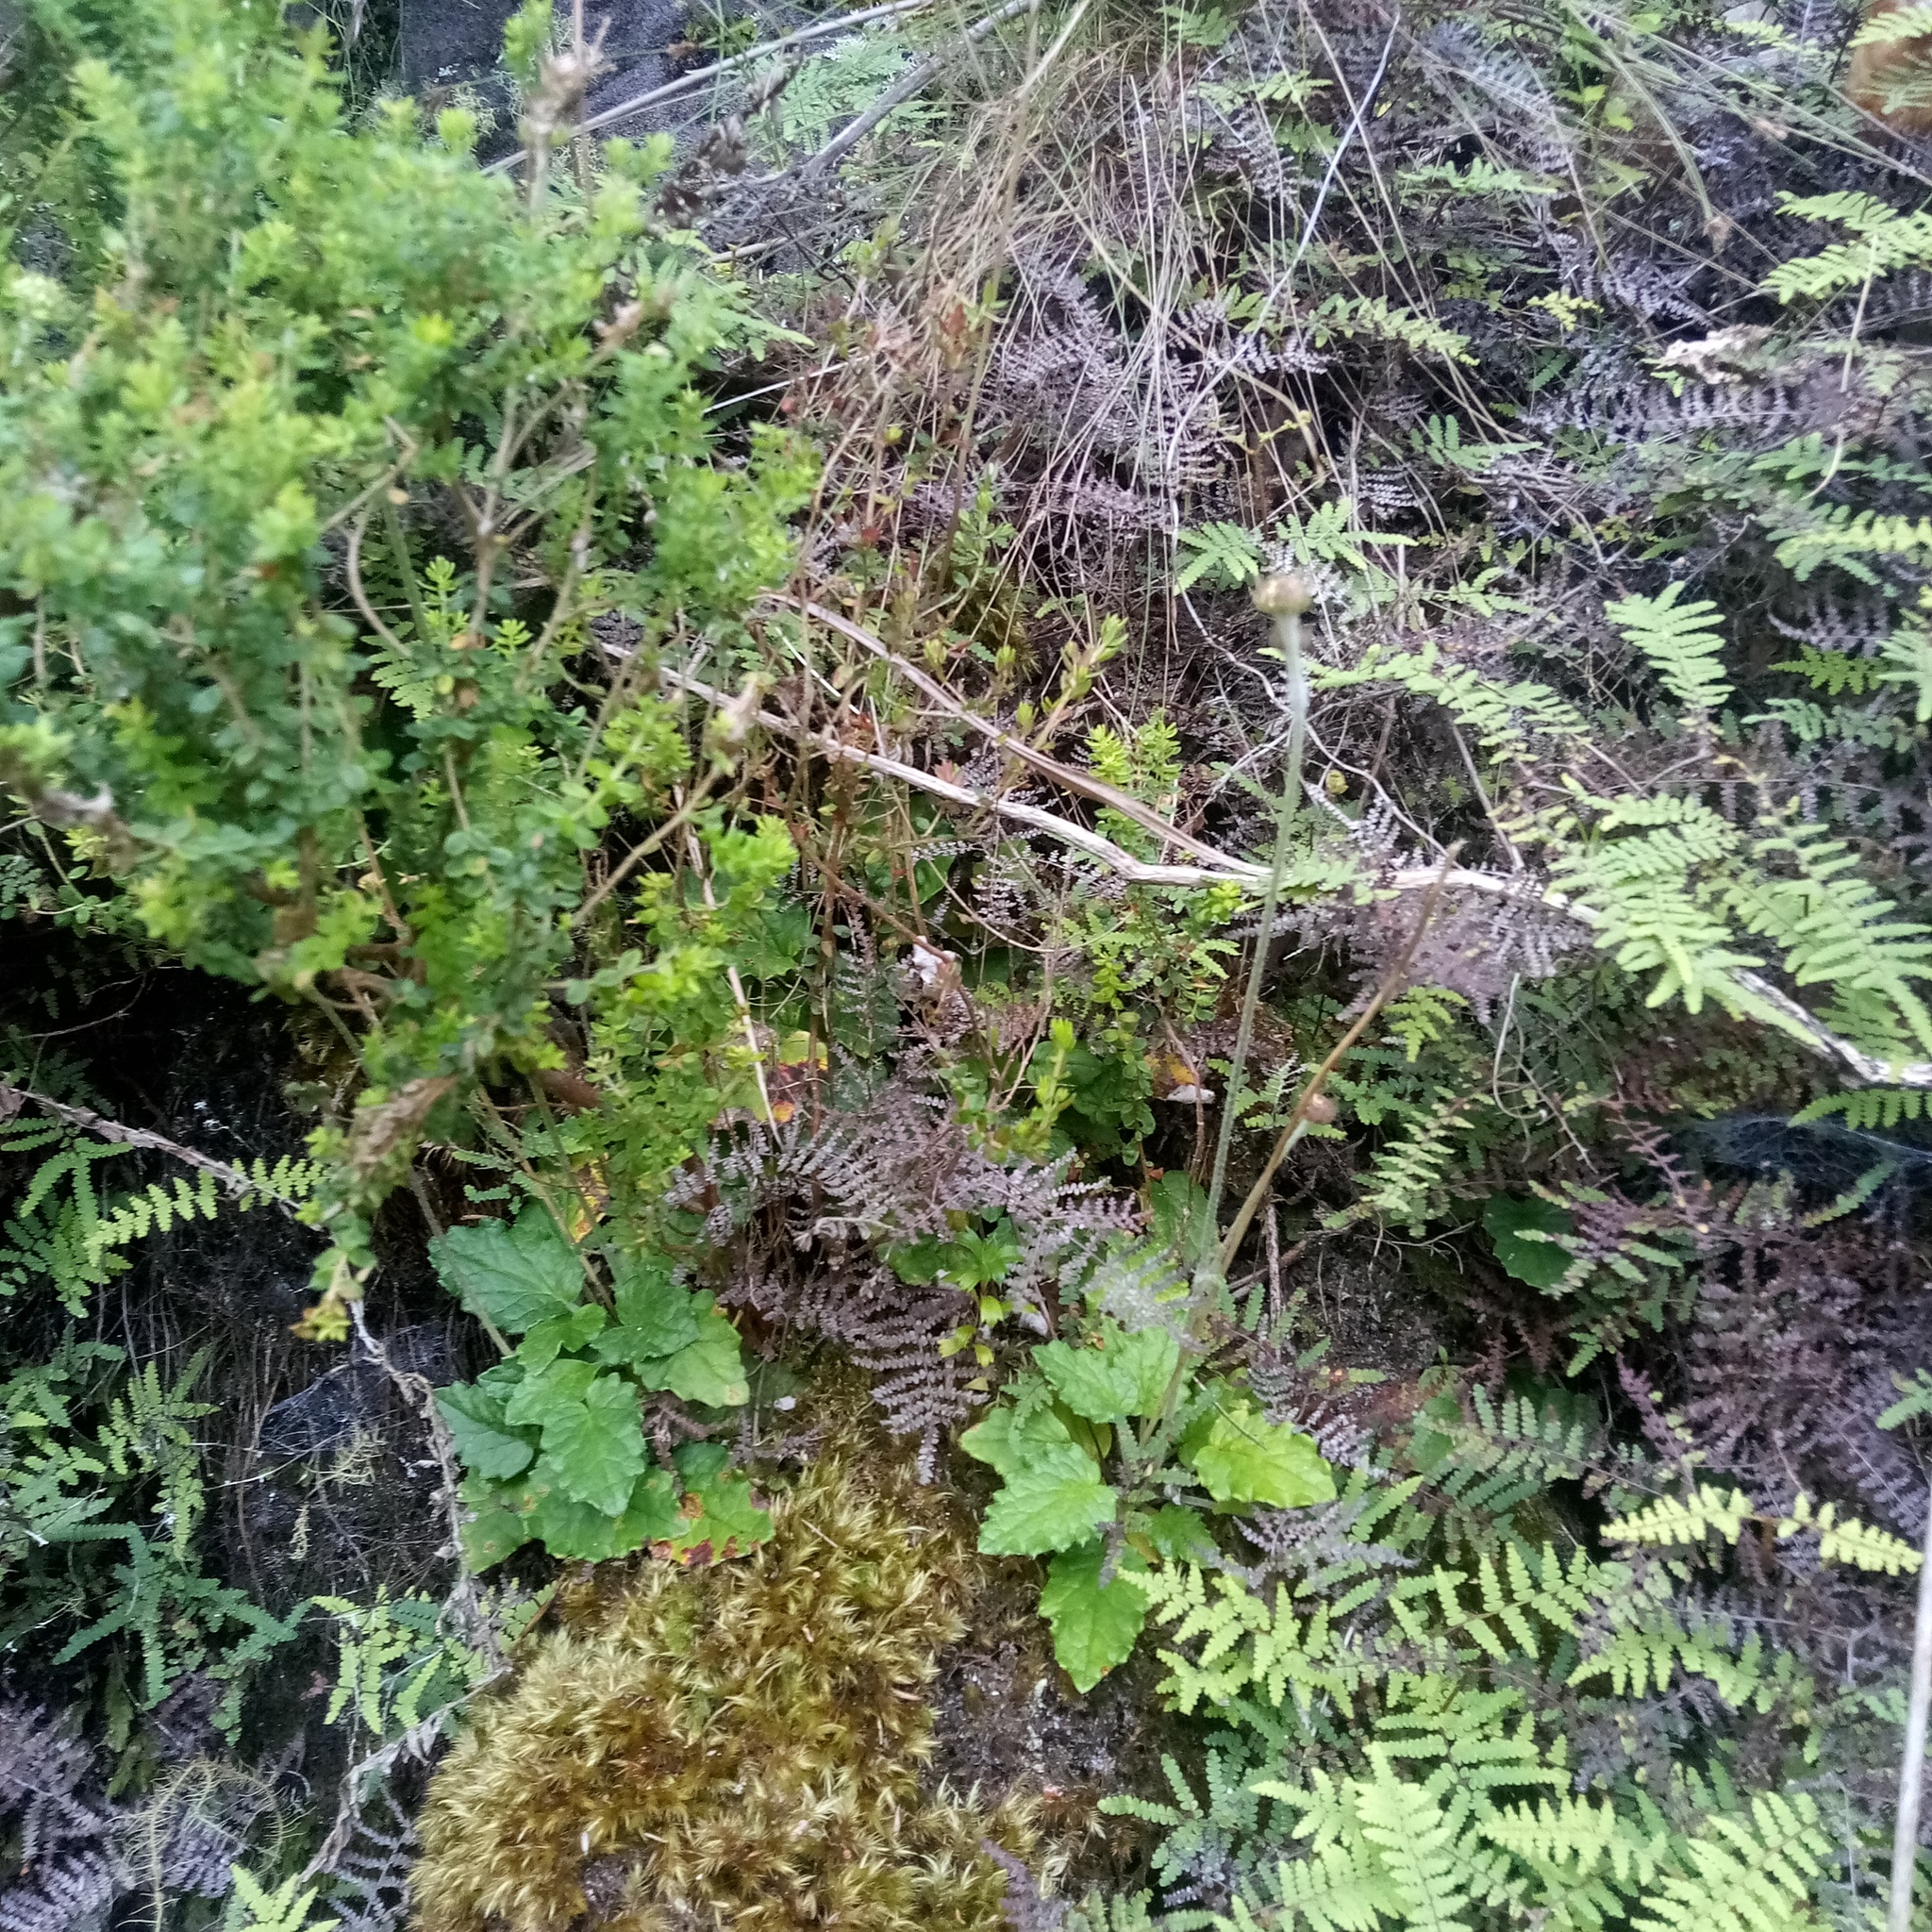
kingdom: Plantae
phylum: Tracheophyta
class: Magnoliopsida
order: Apiales
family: Apiaceae
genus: Hermas
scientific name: Hermas capitata
